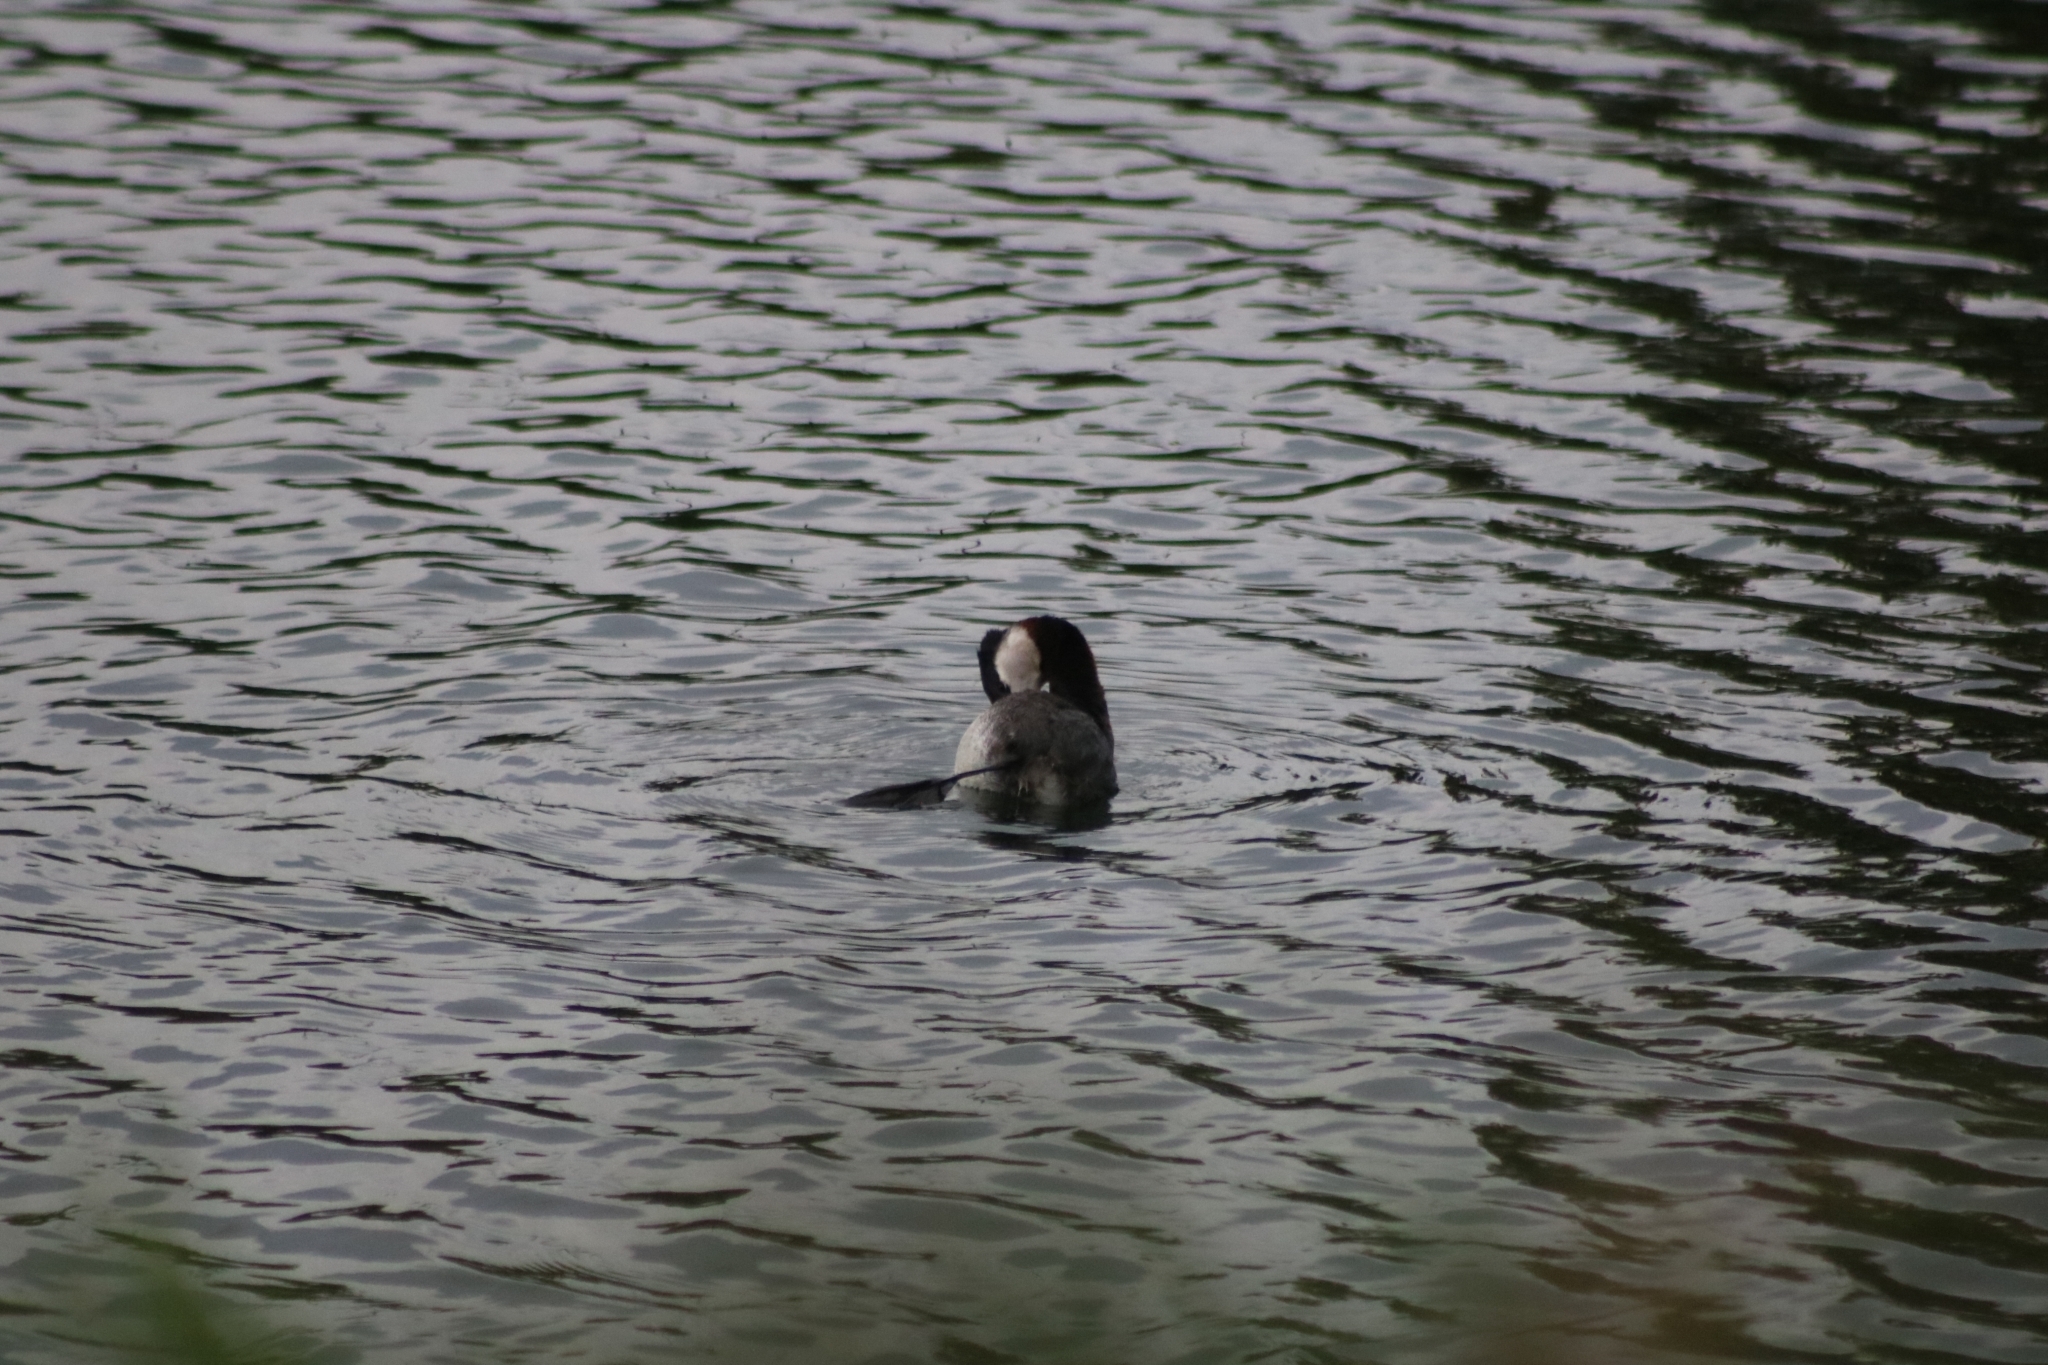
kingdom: Animalia
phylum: Chordata
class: Aves
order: Podicipediformes
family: Podicipedidae
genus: Podiceps
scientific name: Podiceps grisegena
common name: Red-necked grebe
